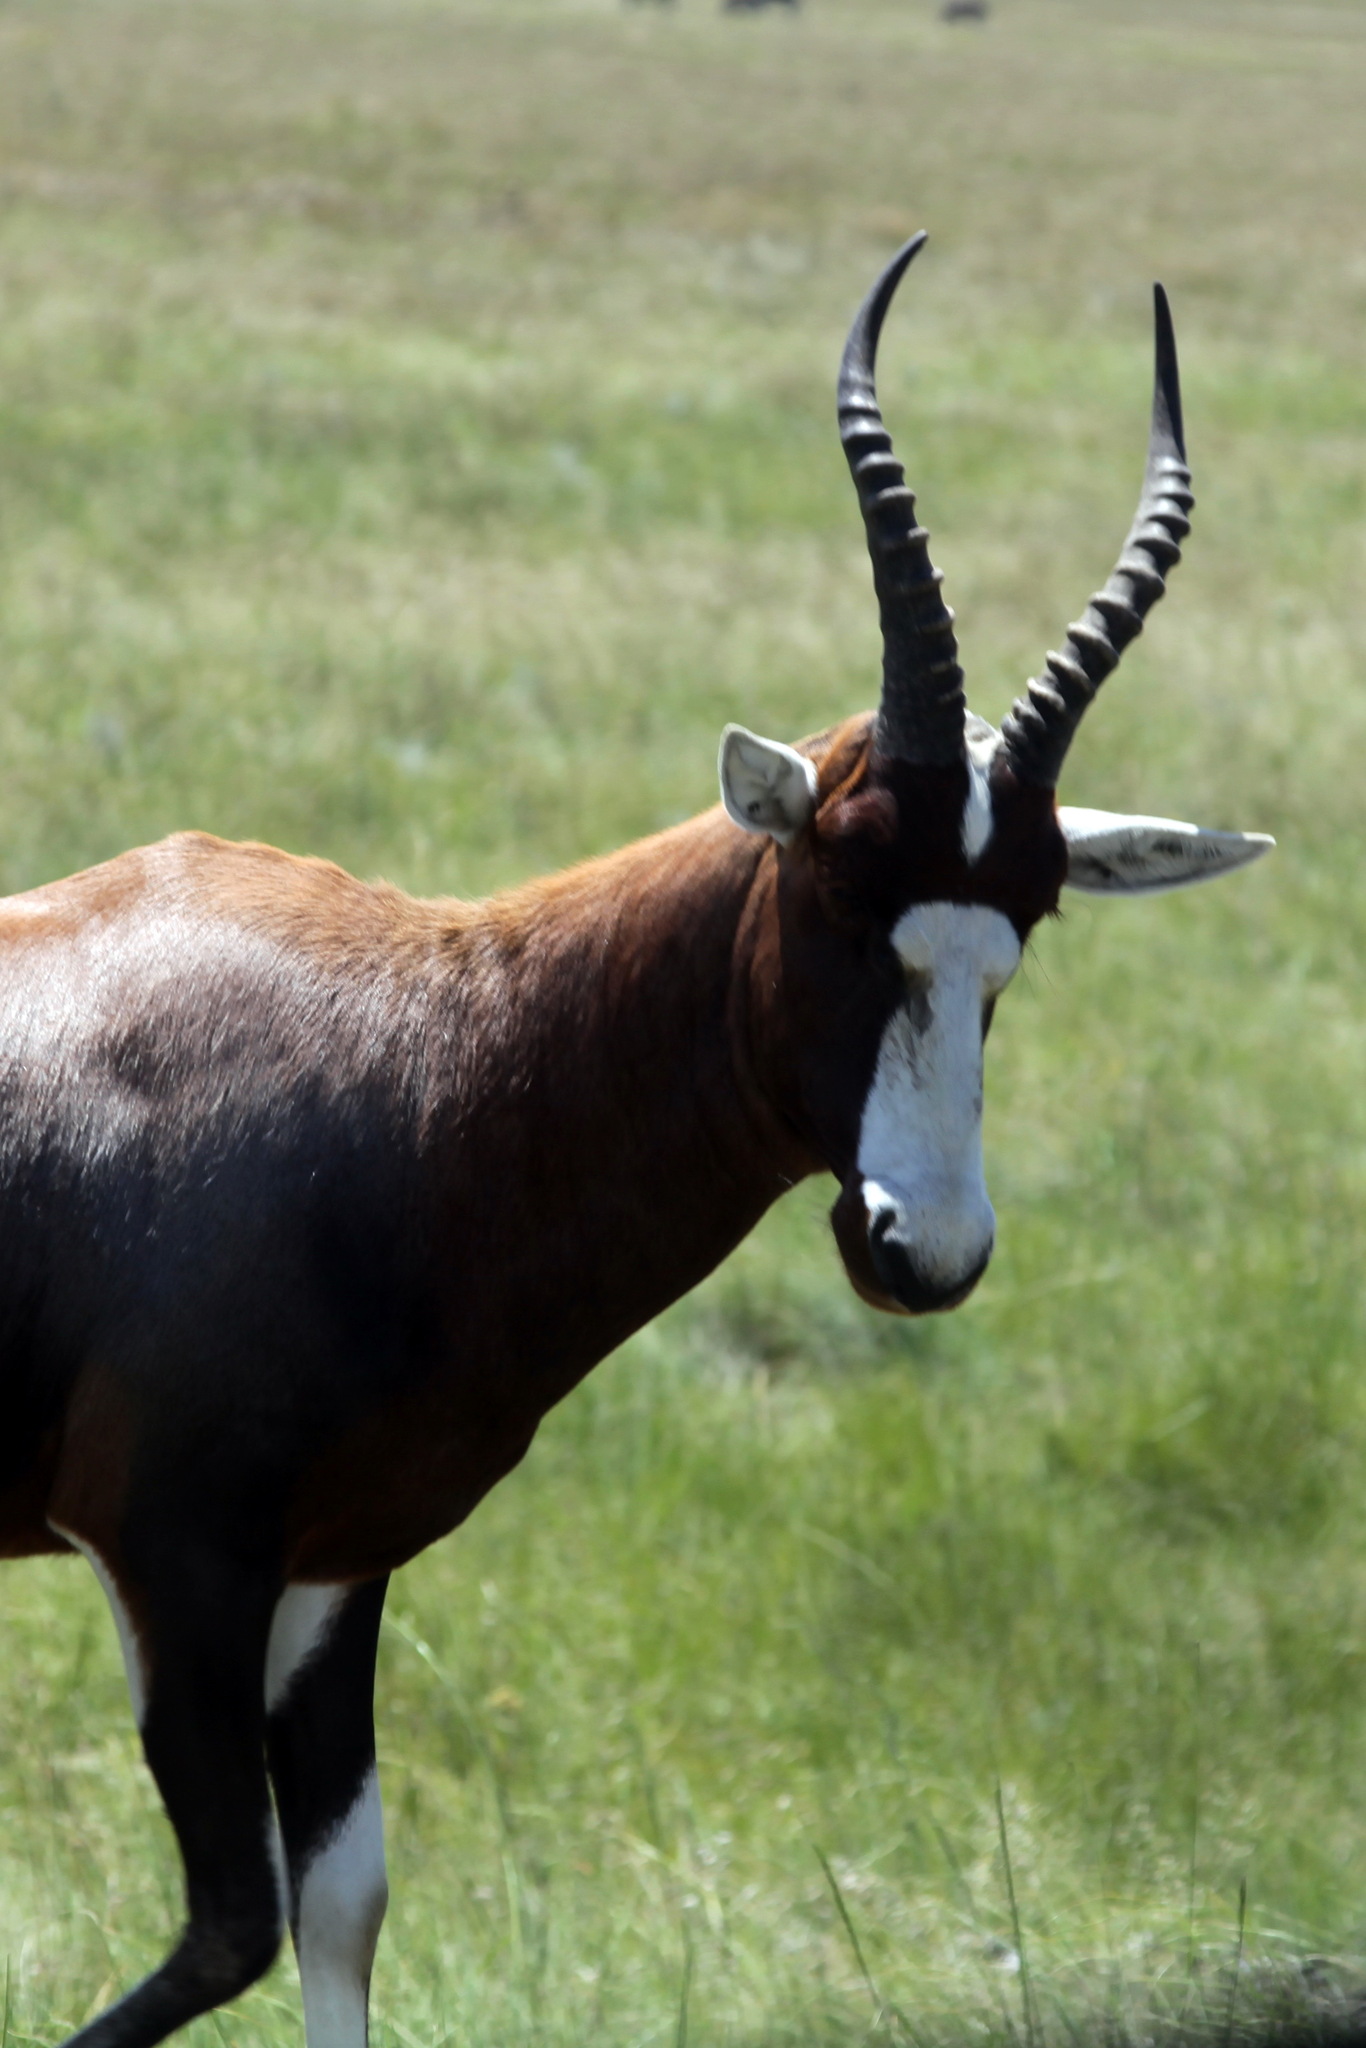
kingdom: Animalia
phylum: Chordata
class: Mammalia
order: Artiodactyla
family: Bovidae
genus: Damaliscus
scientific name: Damaliscus pygargus
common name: Bontebok
